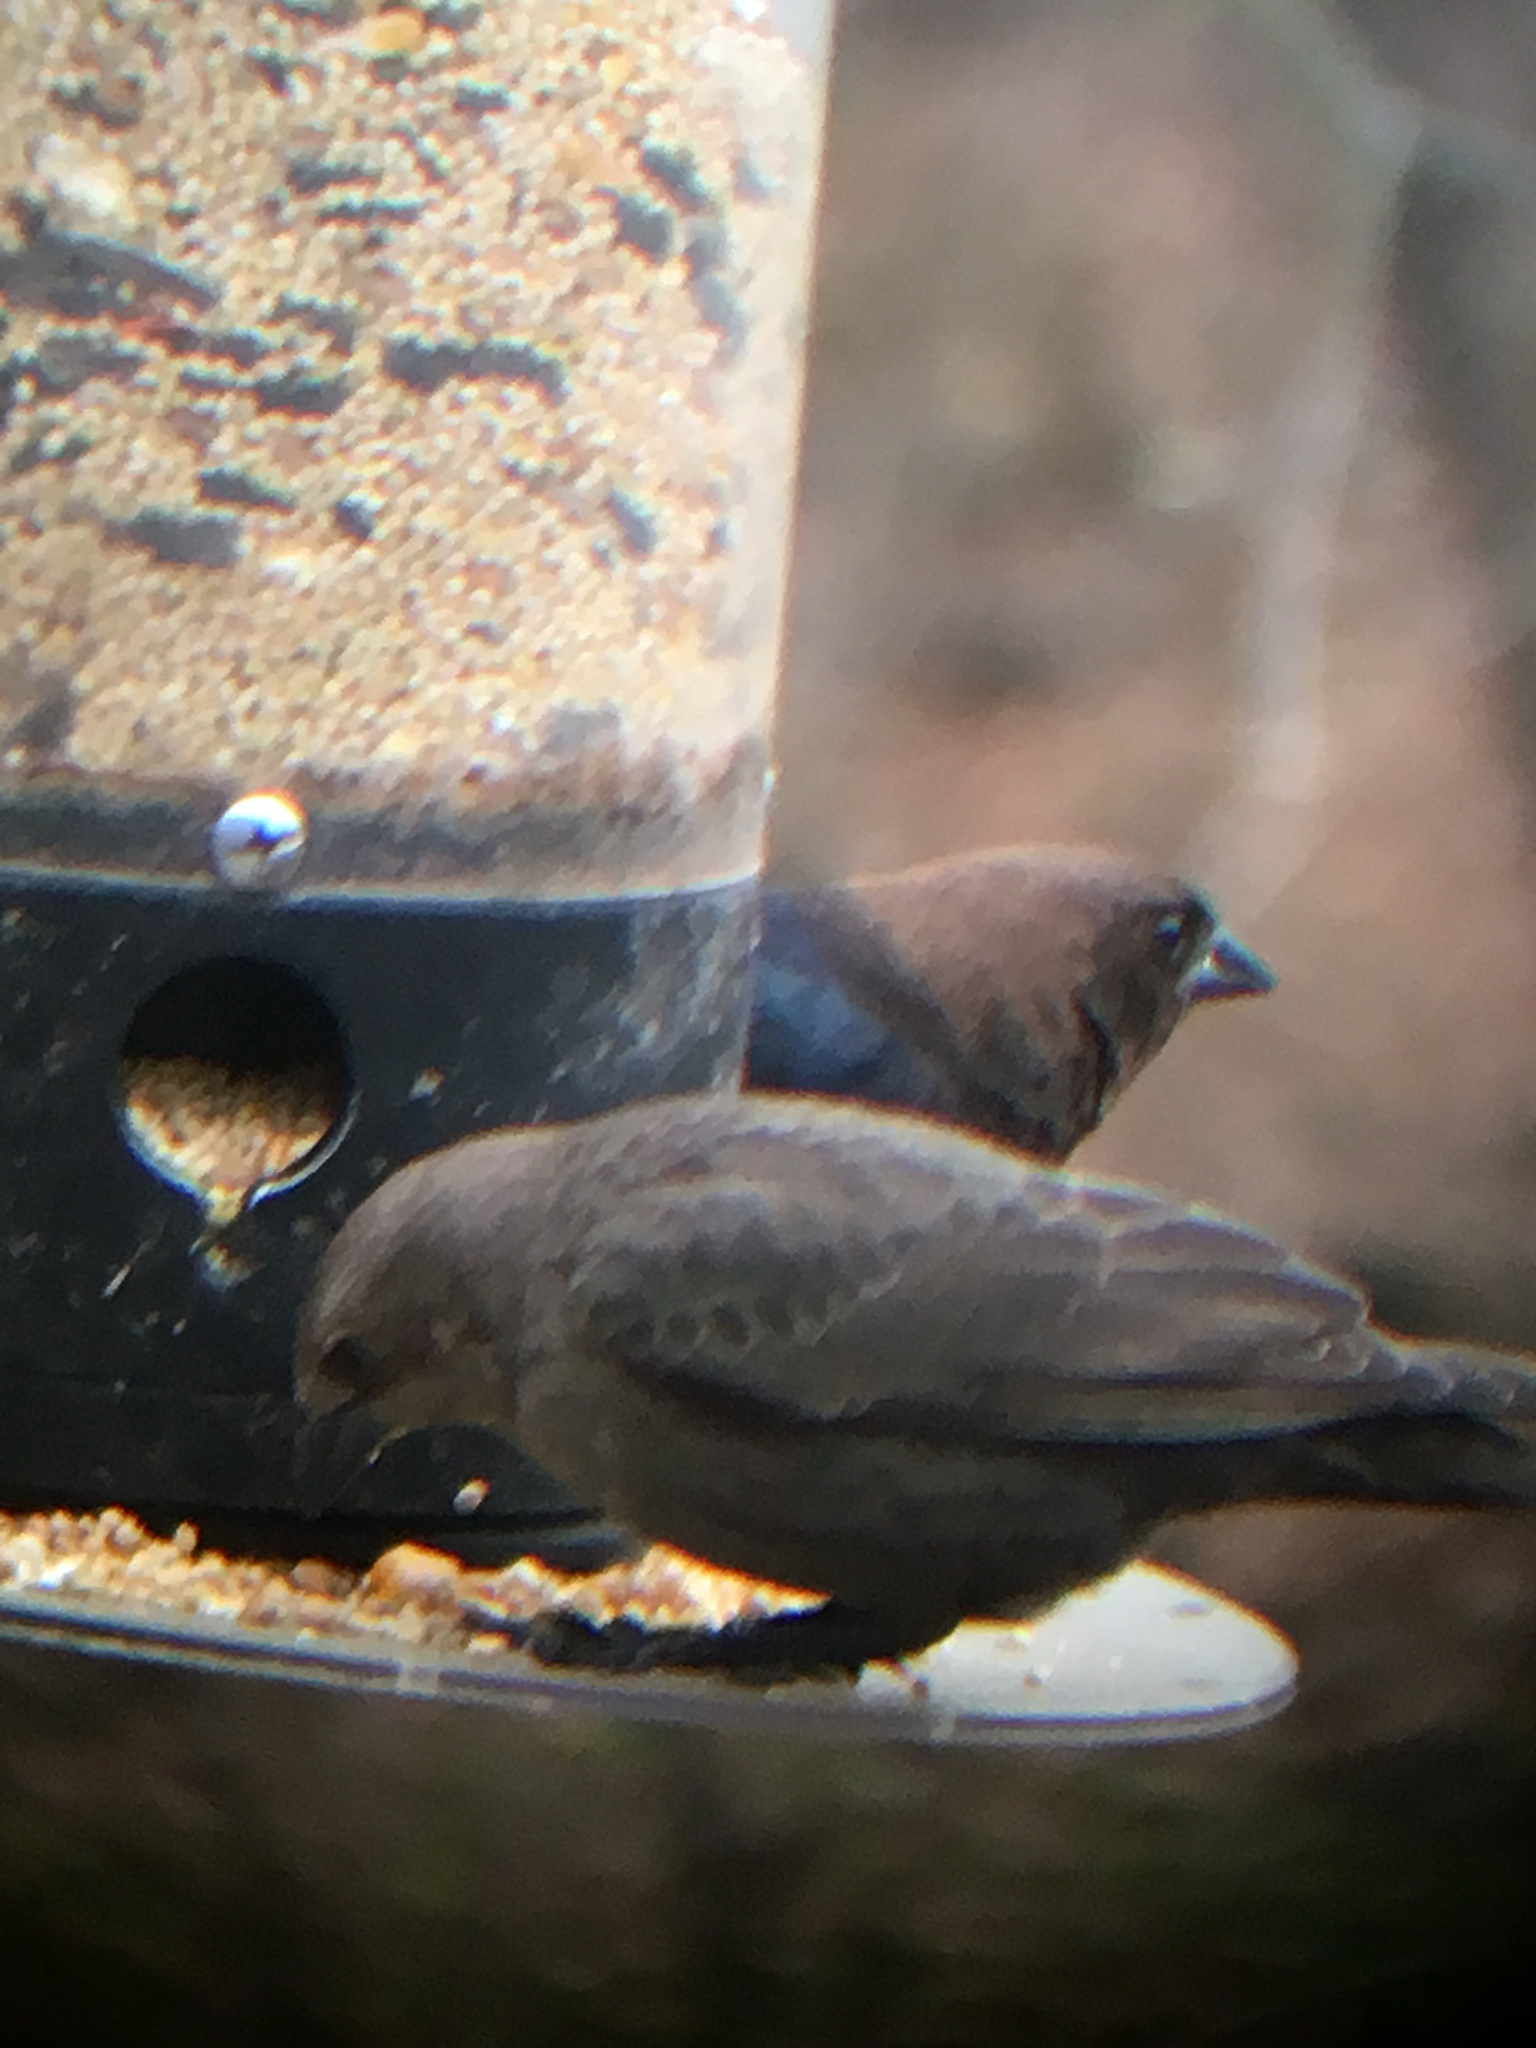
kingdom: Animalia
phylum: Chordata
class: Aves
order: Passeriformes
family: Icteridae
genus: Molothrus
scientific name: Molothrus ater
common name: Brown-headed cowbird
